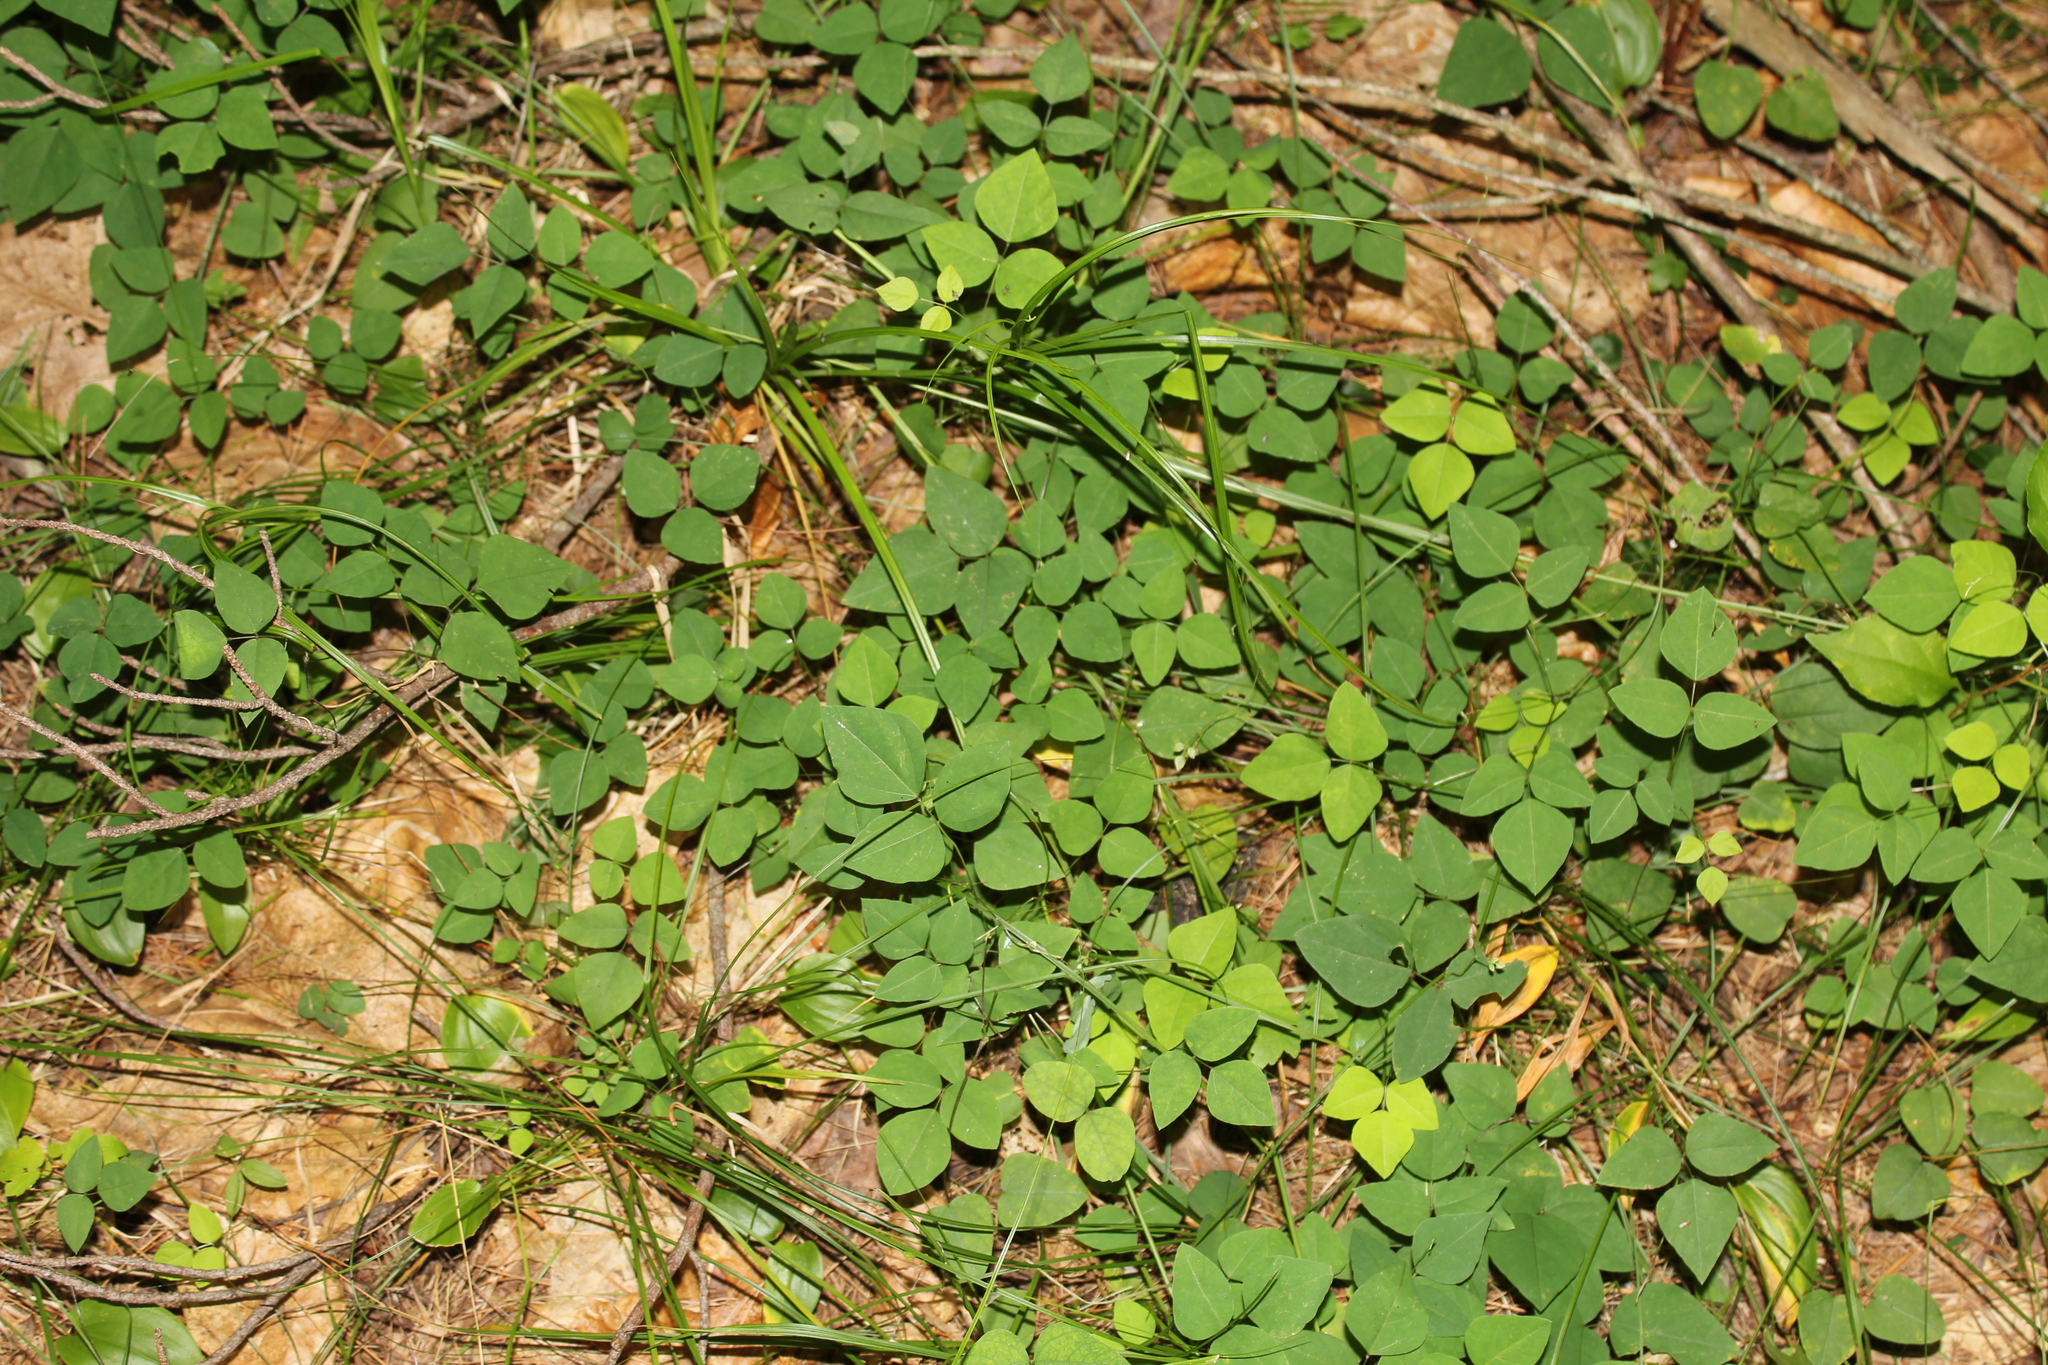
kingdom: Plantae
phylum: Tracheophyta
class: Magnoliopsida
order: Fabales
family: Fabaceae
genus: Amphicarpaea
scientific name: Amphicarpaea bracteata
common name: American hog peanut
